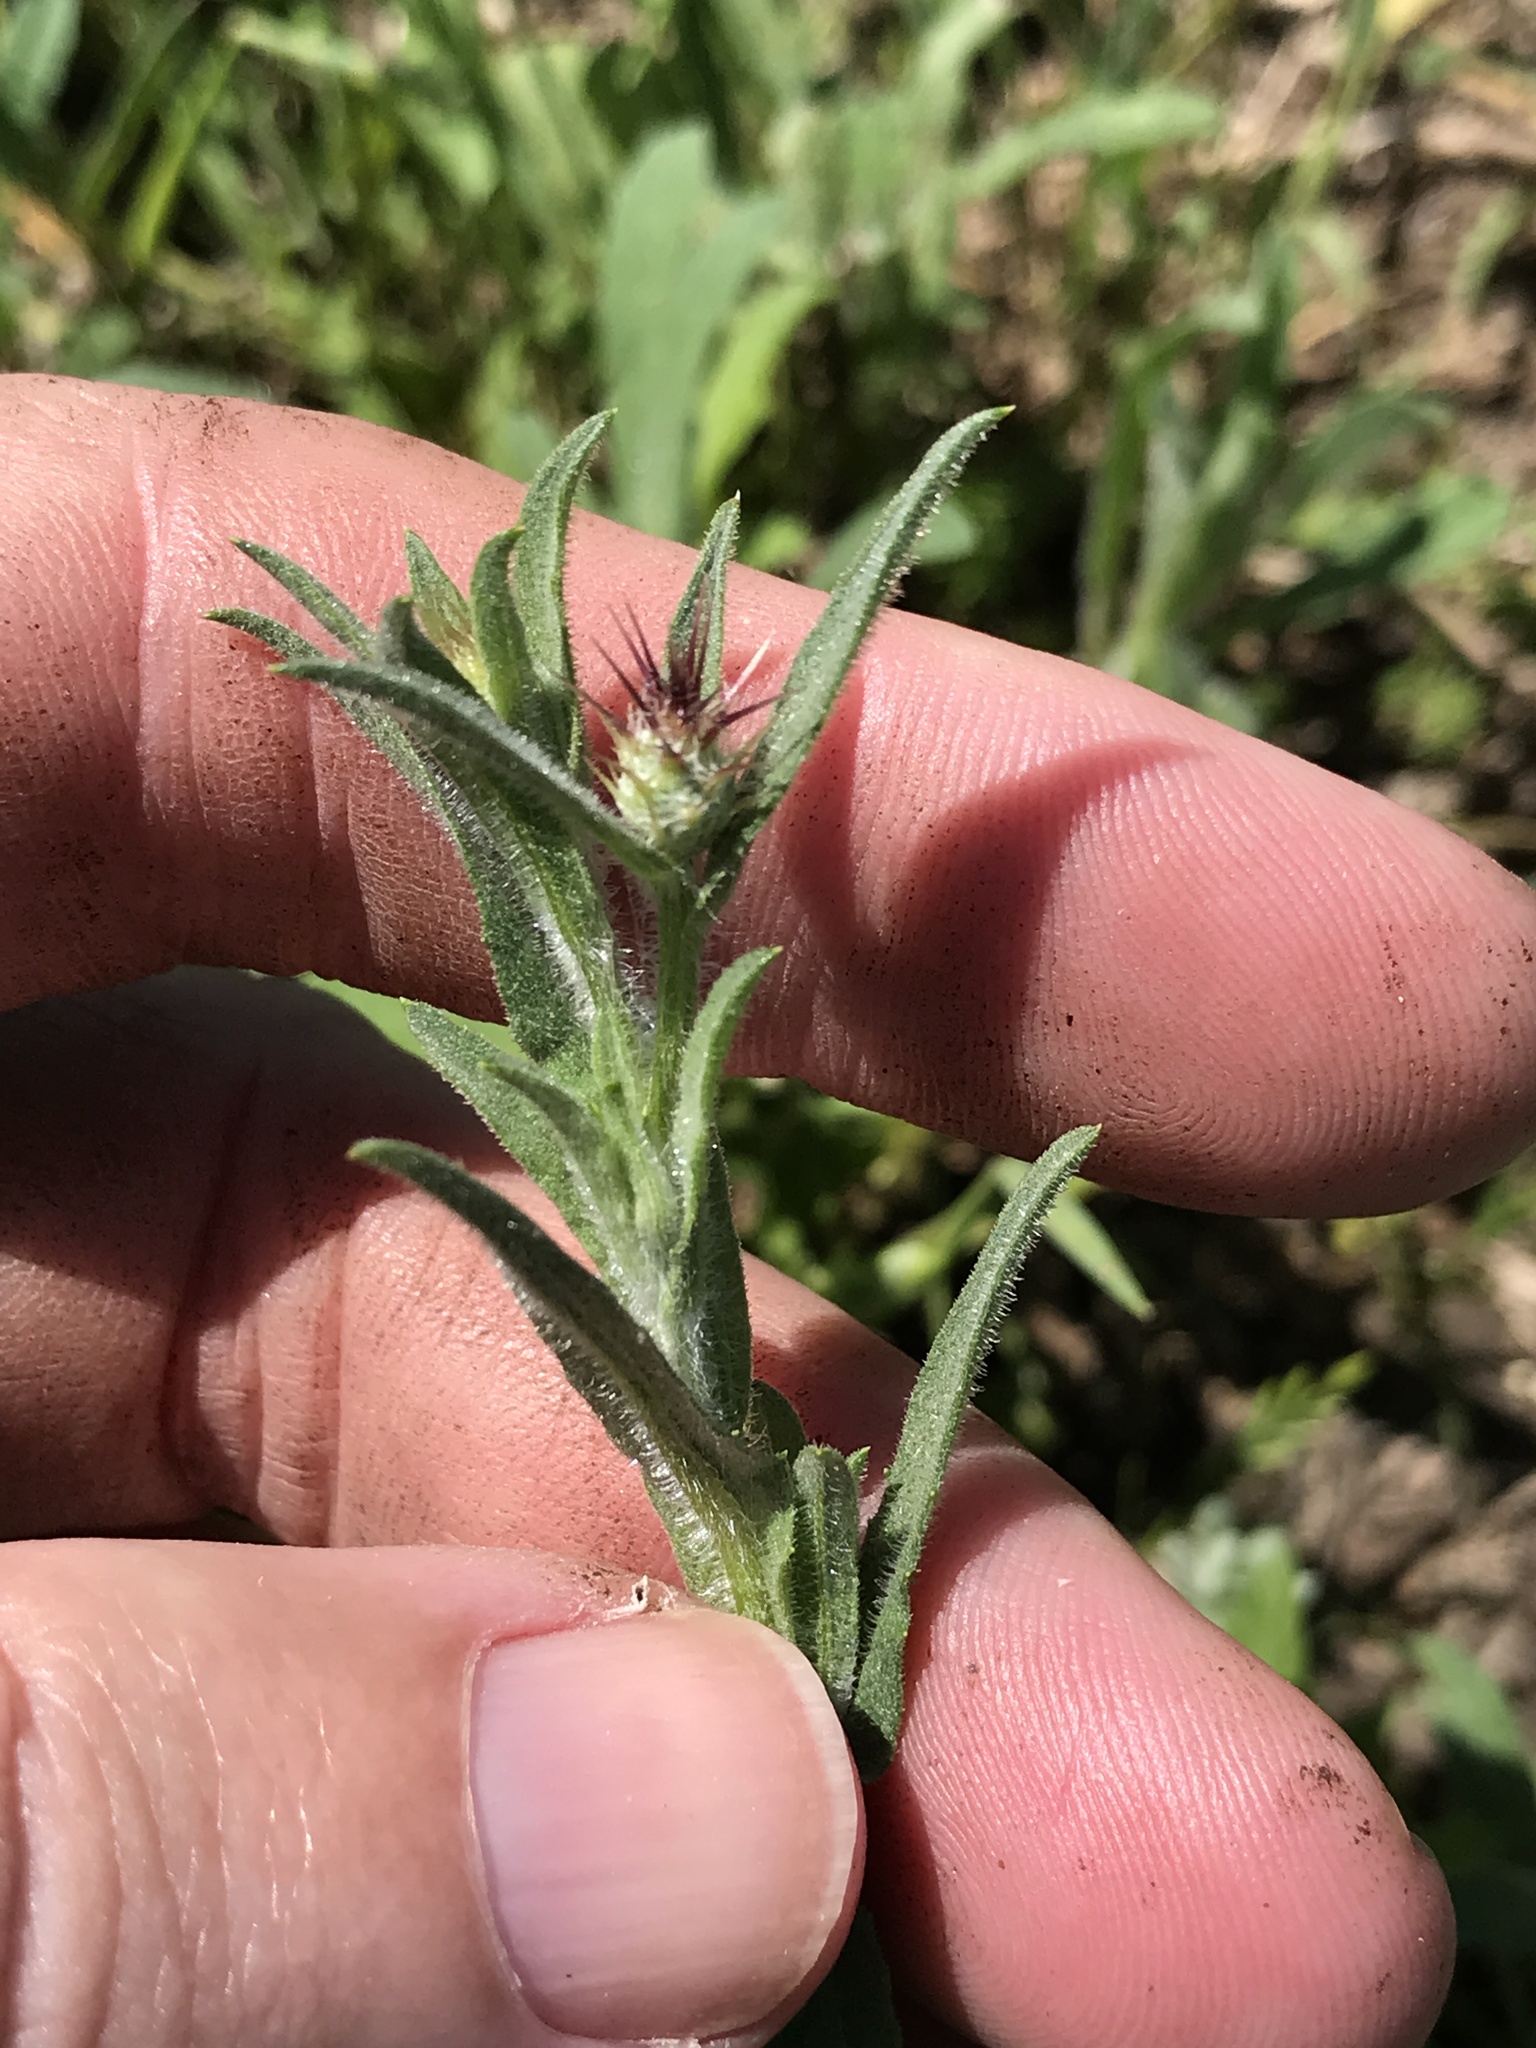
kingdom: Plantae
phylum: Tracheophyta
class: Magnoliopsida
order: Asterales
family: Asteraceae
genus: Centaurea
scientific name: Centaurea melitensis
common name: Maltese star-thistle
